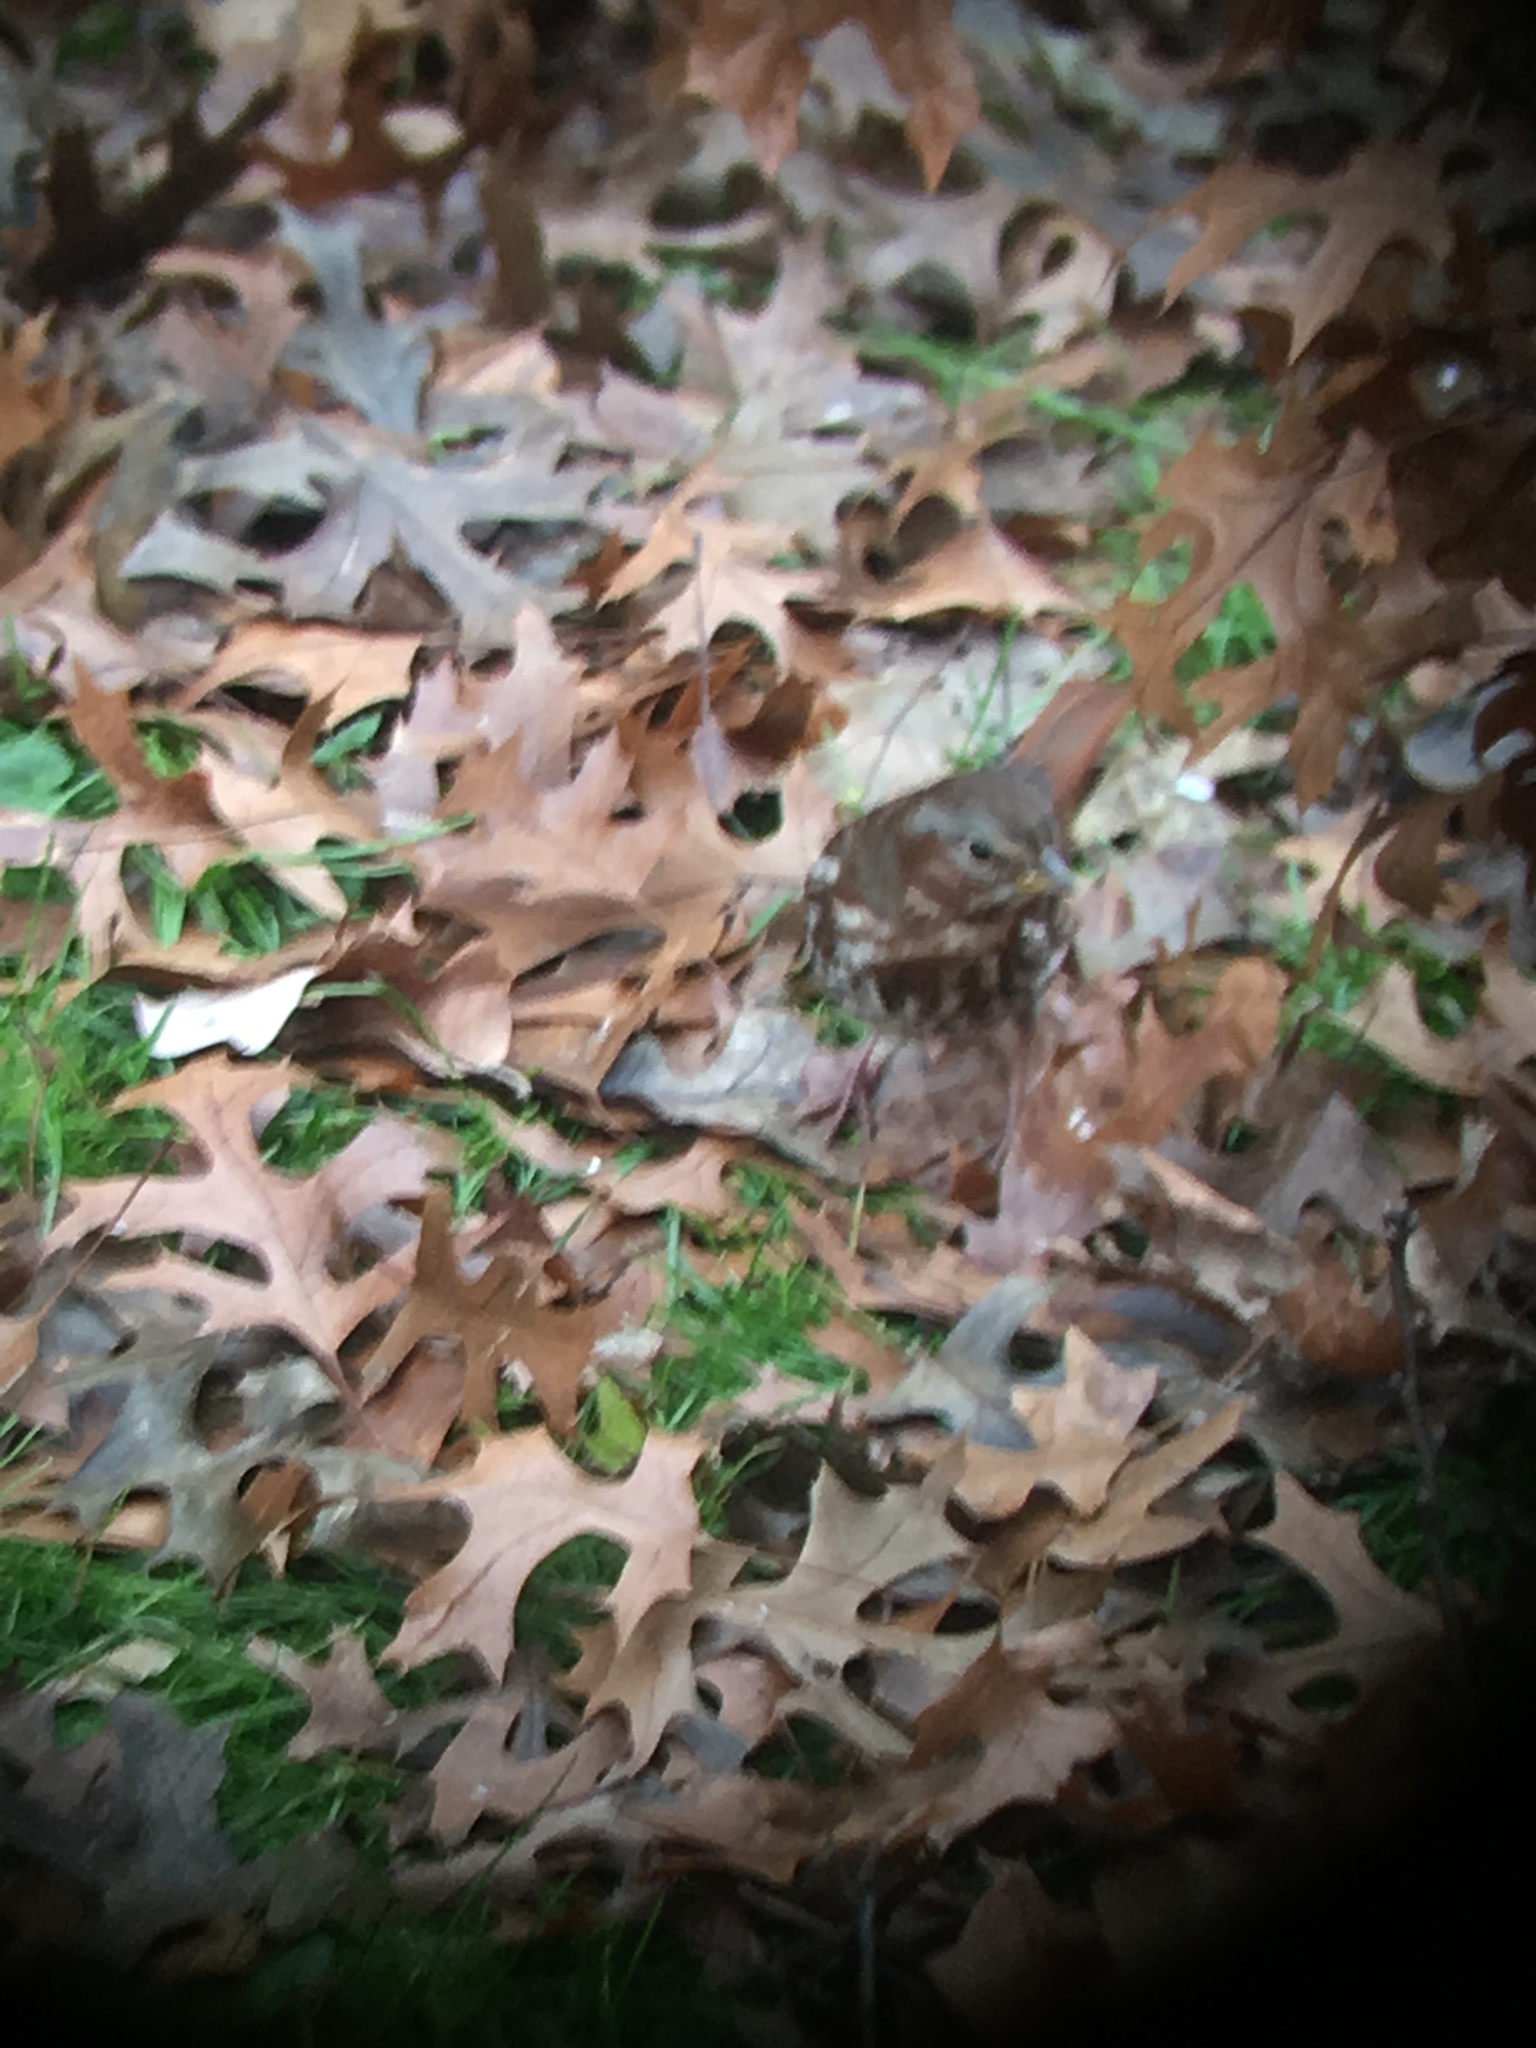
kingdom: Animalia
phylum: Chordata
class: Aves
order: Passeriformes
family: Passerellidae
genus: Passerella
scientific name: Passerella iliaca
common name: Fox sparrow
